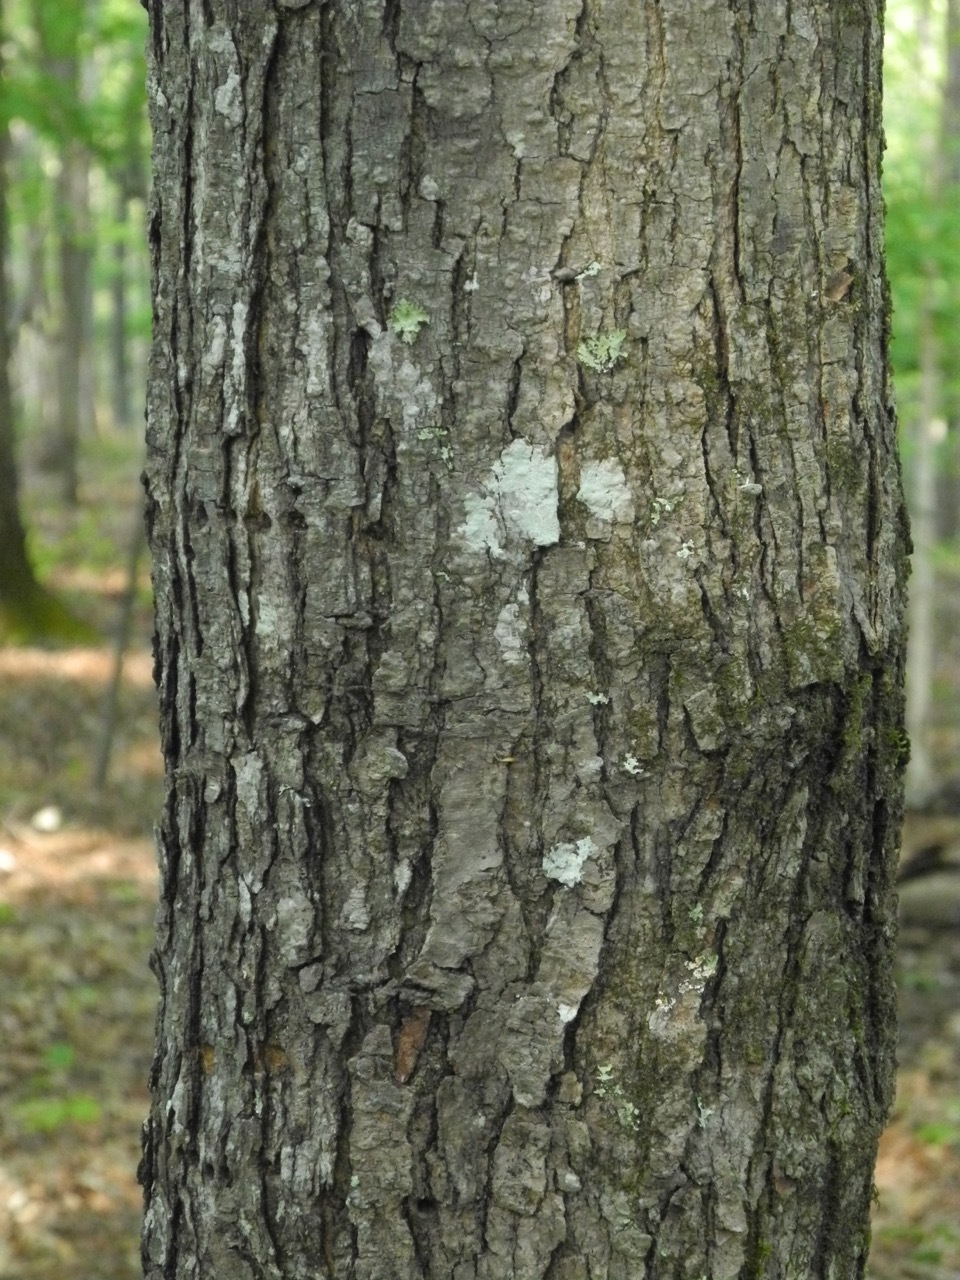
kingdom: Plantae
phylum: Tracheophyta
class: Magnoliopsida
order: Sapindales
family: Sapindaceae
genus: Acer
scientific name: Acer freemanii
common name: Freeman maple
